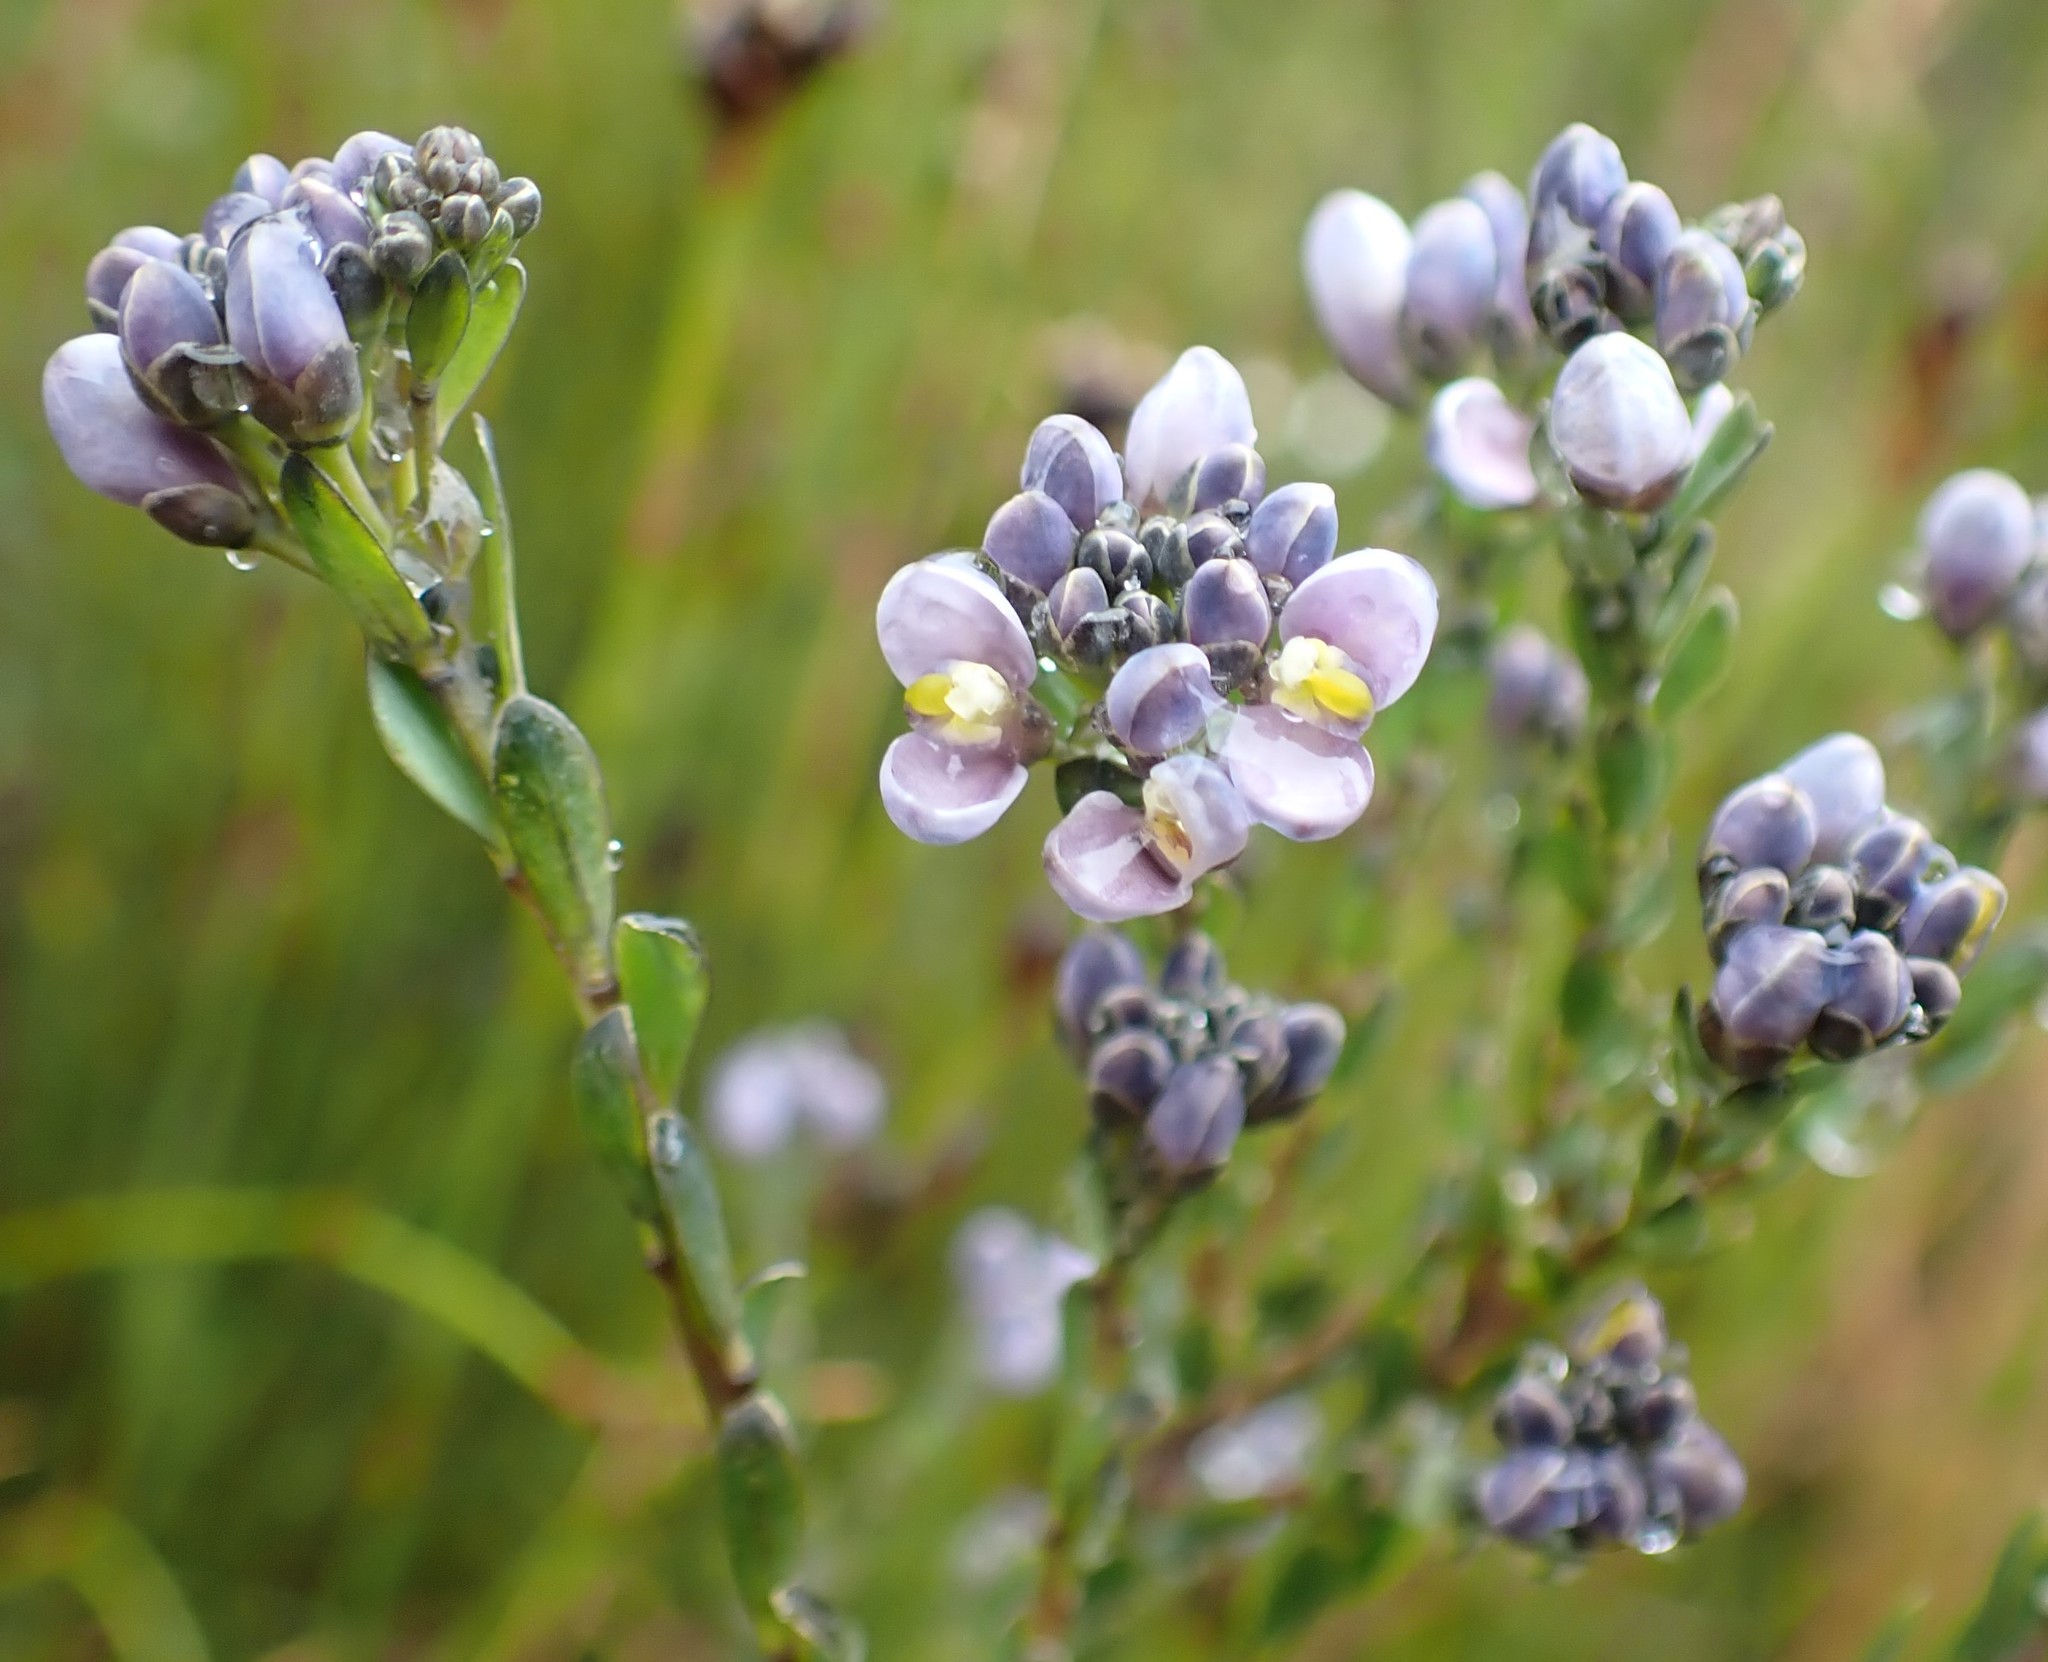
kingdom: Plantae
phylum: Tracheophyta
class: Magnoliopsida
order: Fabales
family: Polygalaceae
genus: Comesperma
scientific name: Comesperma retusum
